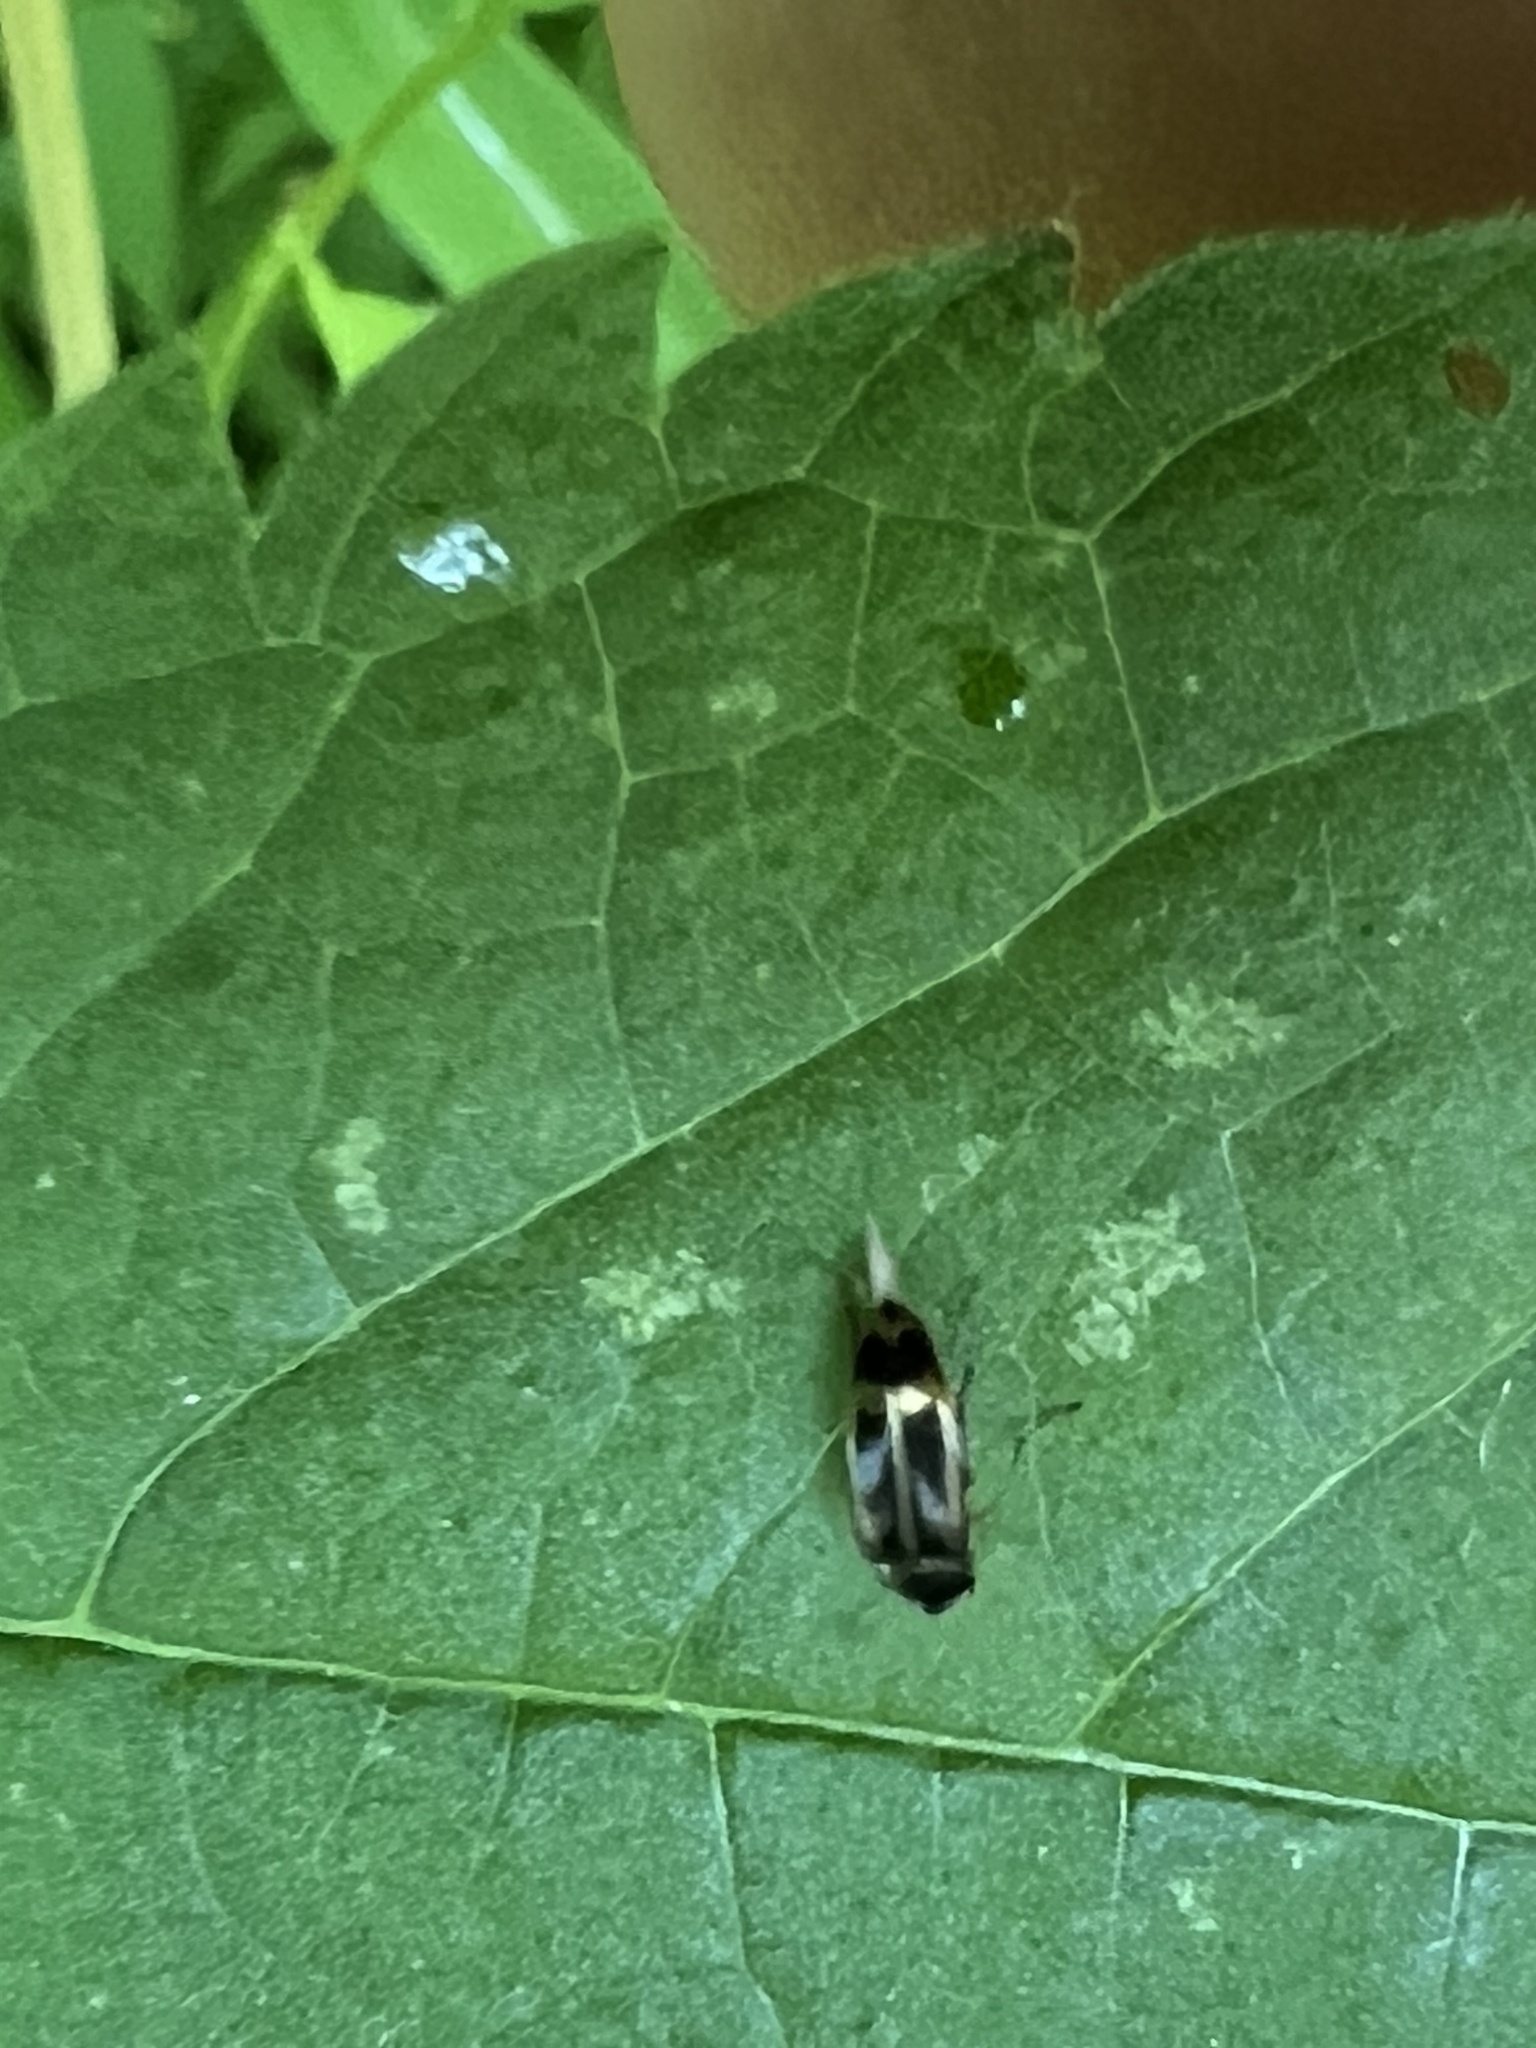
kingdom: Animalia
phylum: Arthropoda
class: Insecta
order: Coleoptera
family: Mordellidae
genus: Falsomordellistena
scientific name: Falsomordellistena hebraica
